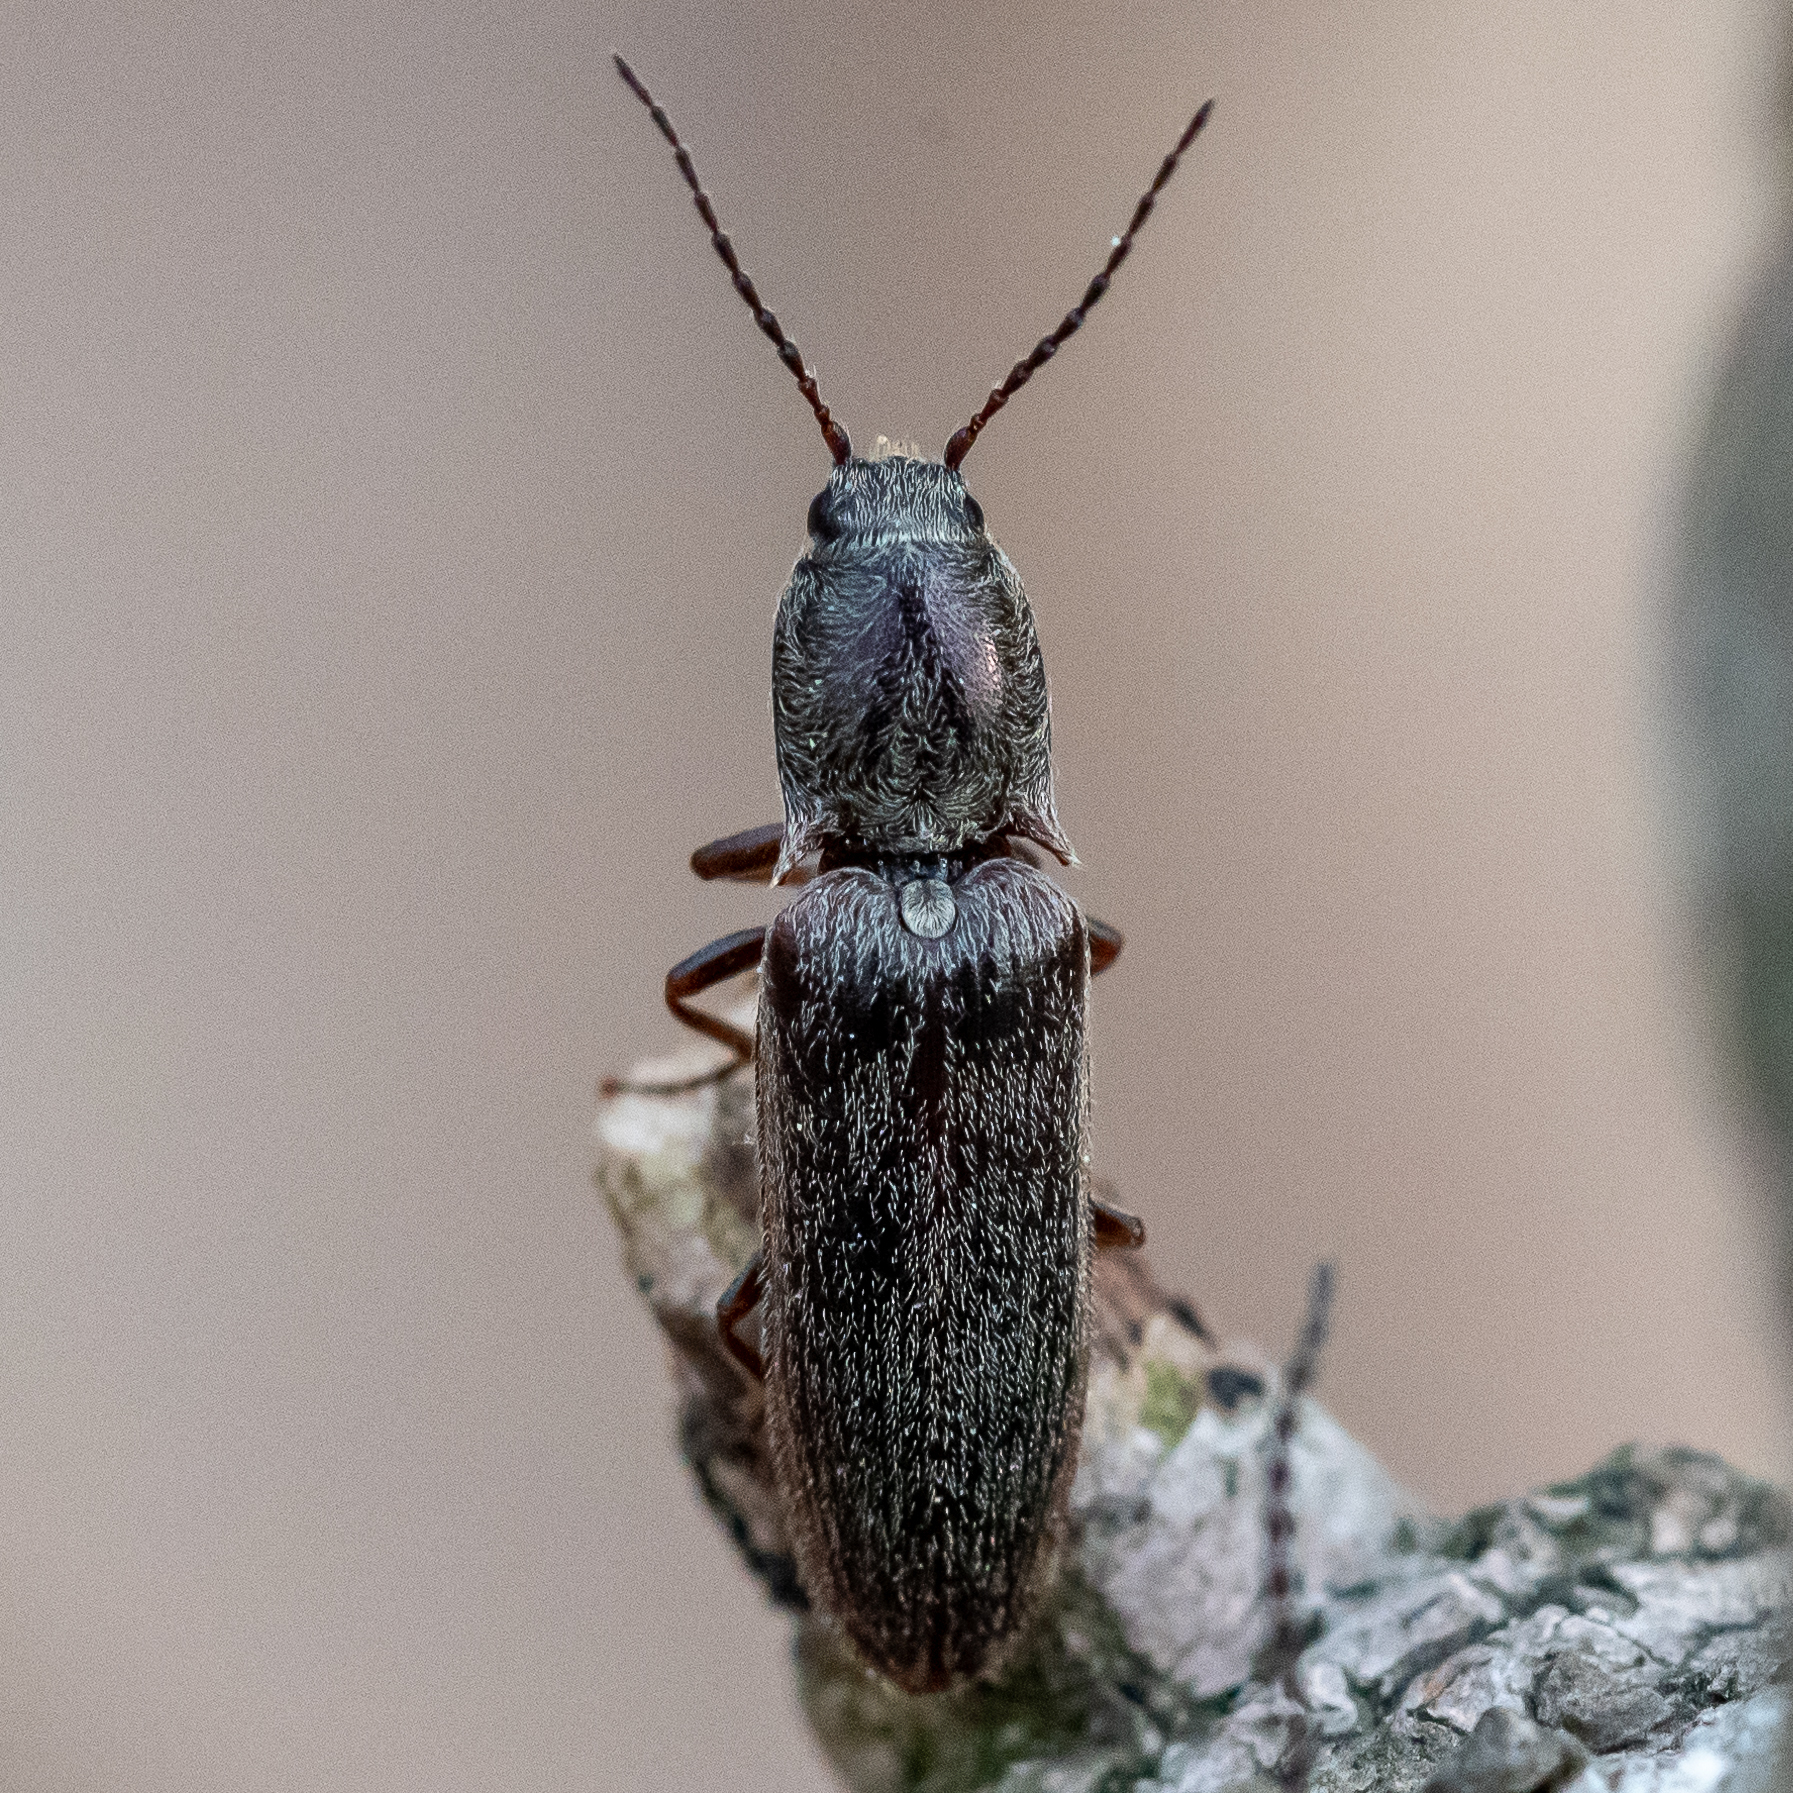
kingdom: Animalia
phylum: Arthropoda
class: Insecta
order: Coleoptera
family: Elateridae
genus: Sylvanelater
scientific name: Sylvanelater cylindriformis
